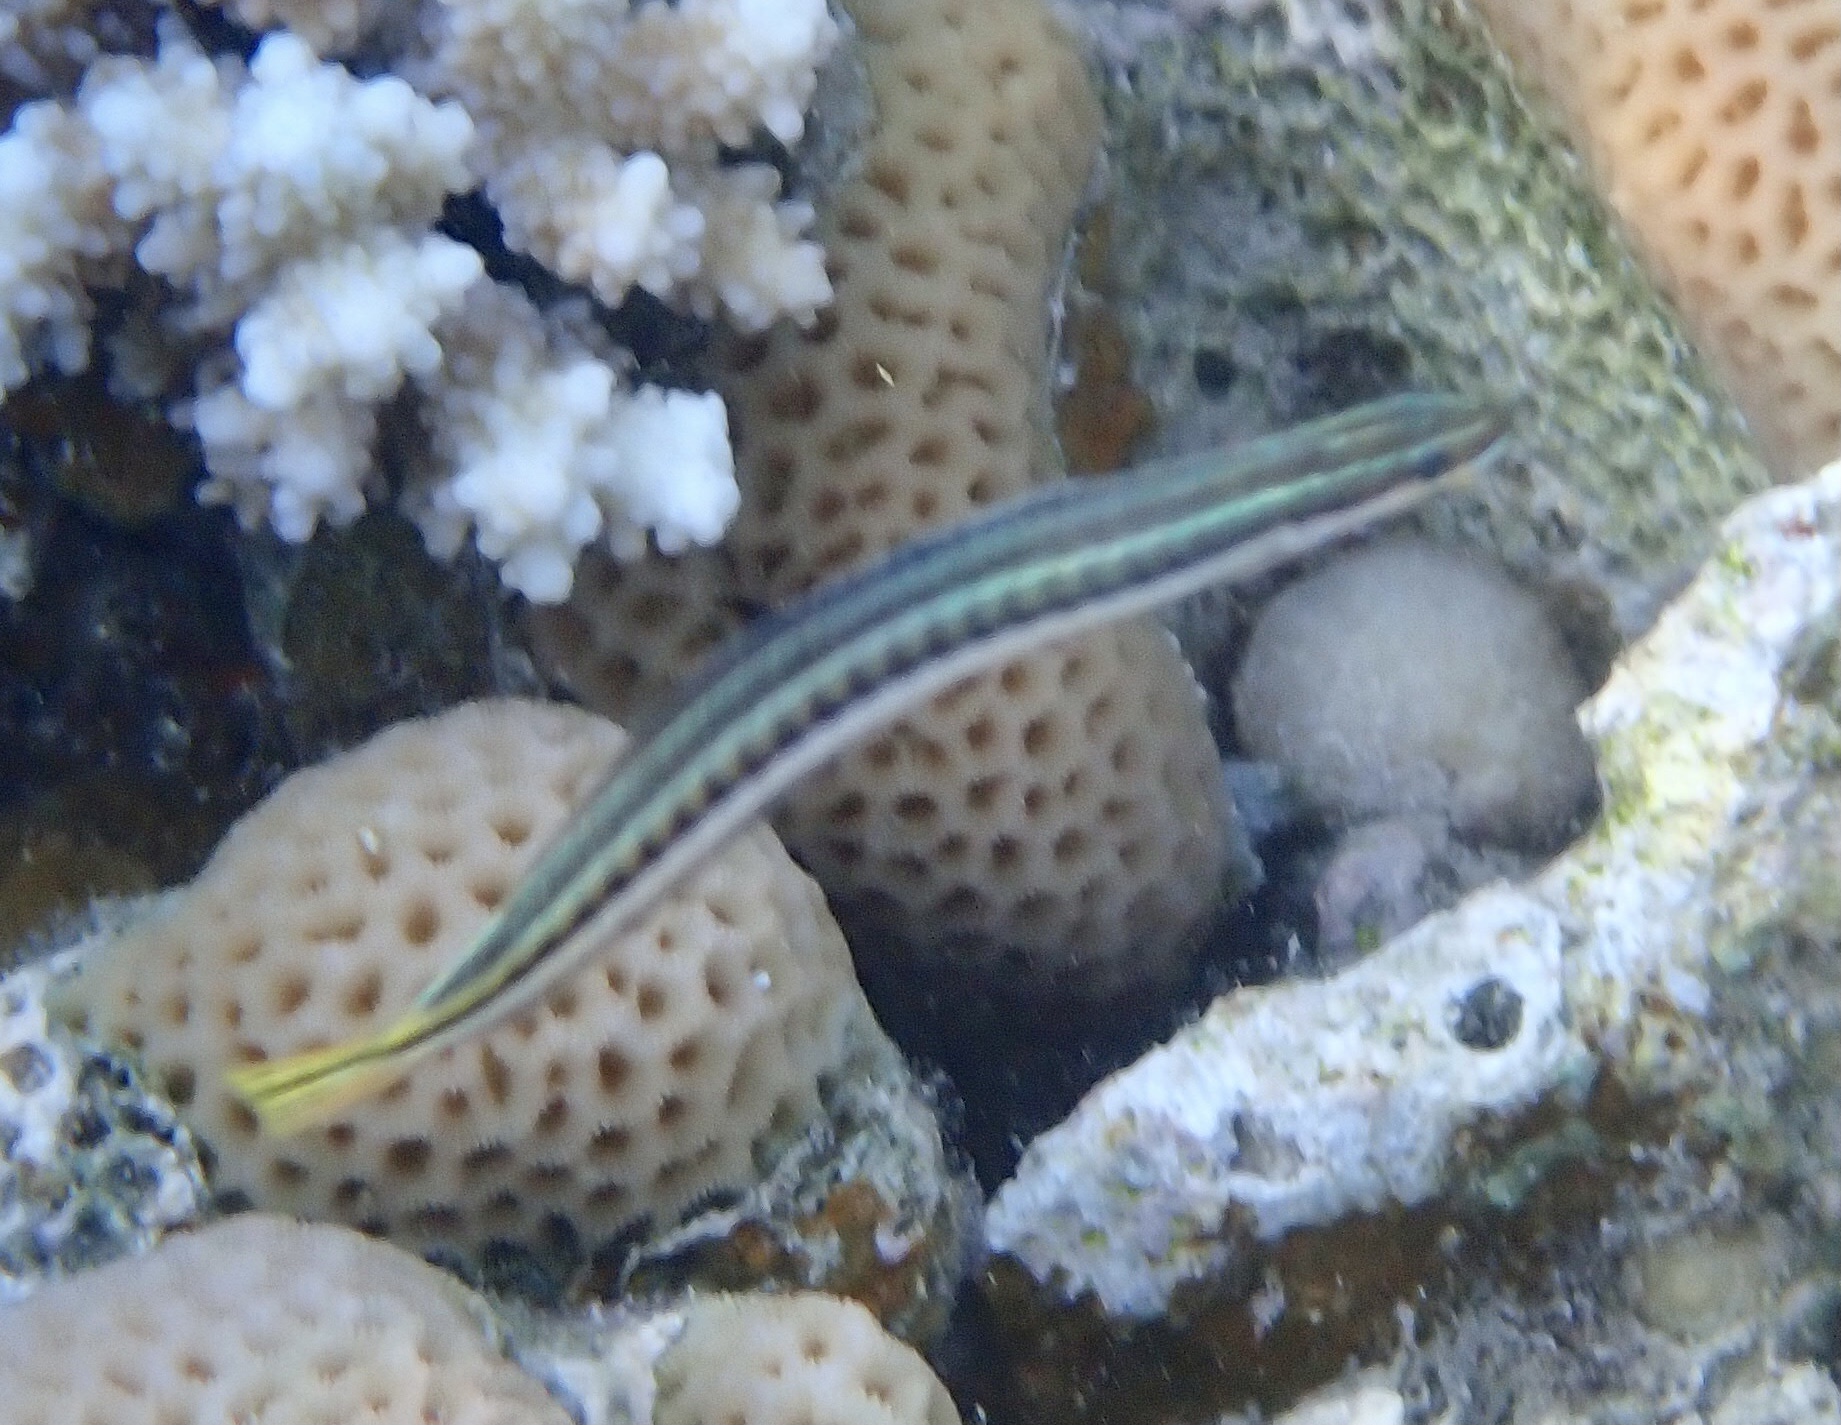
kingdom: Animalia
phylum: Chordata
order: Perciformes
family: Blenniidae
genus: Plagiotremus
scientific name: Plagiotremus tapeinosoma
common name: Hit and run blenny
